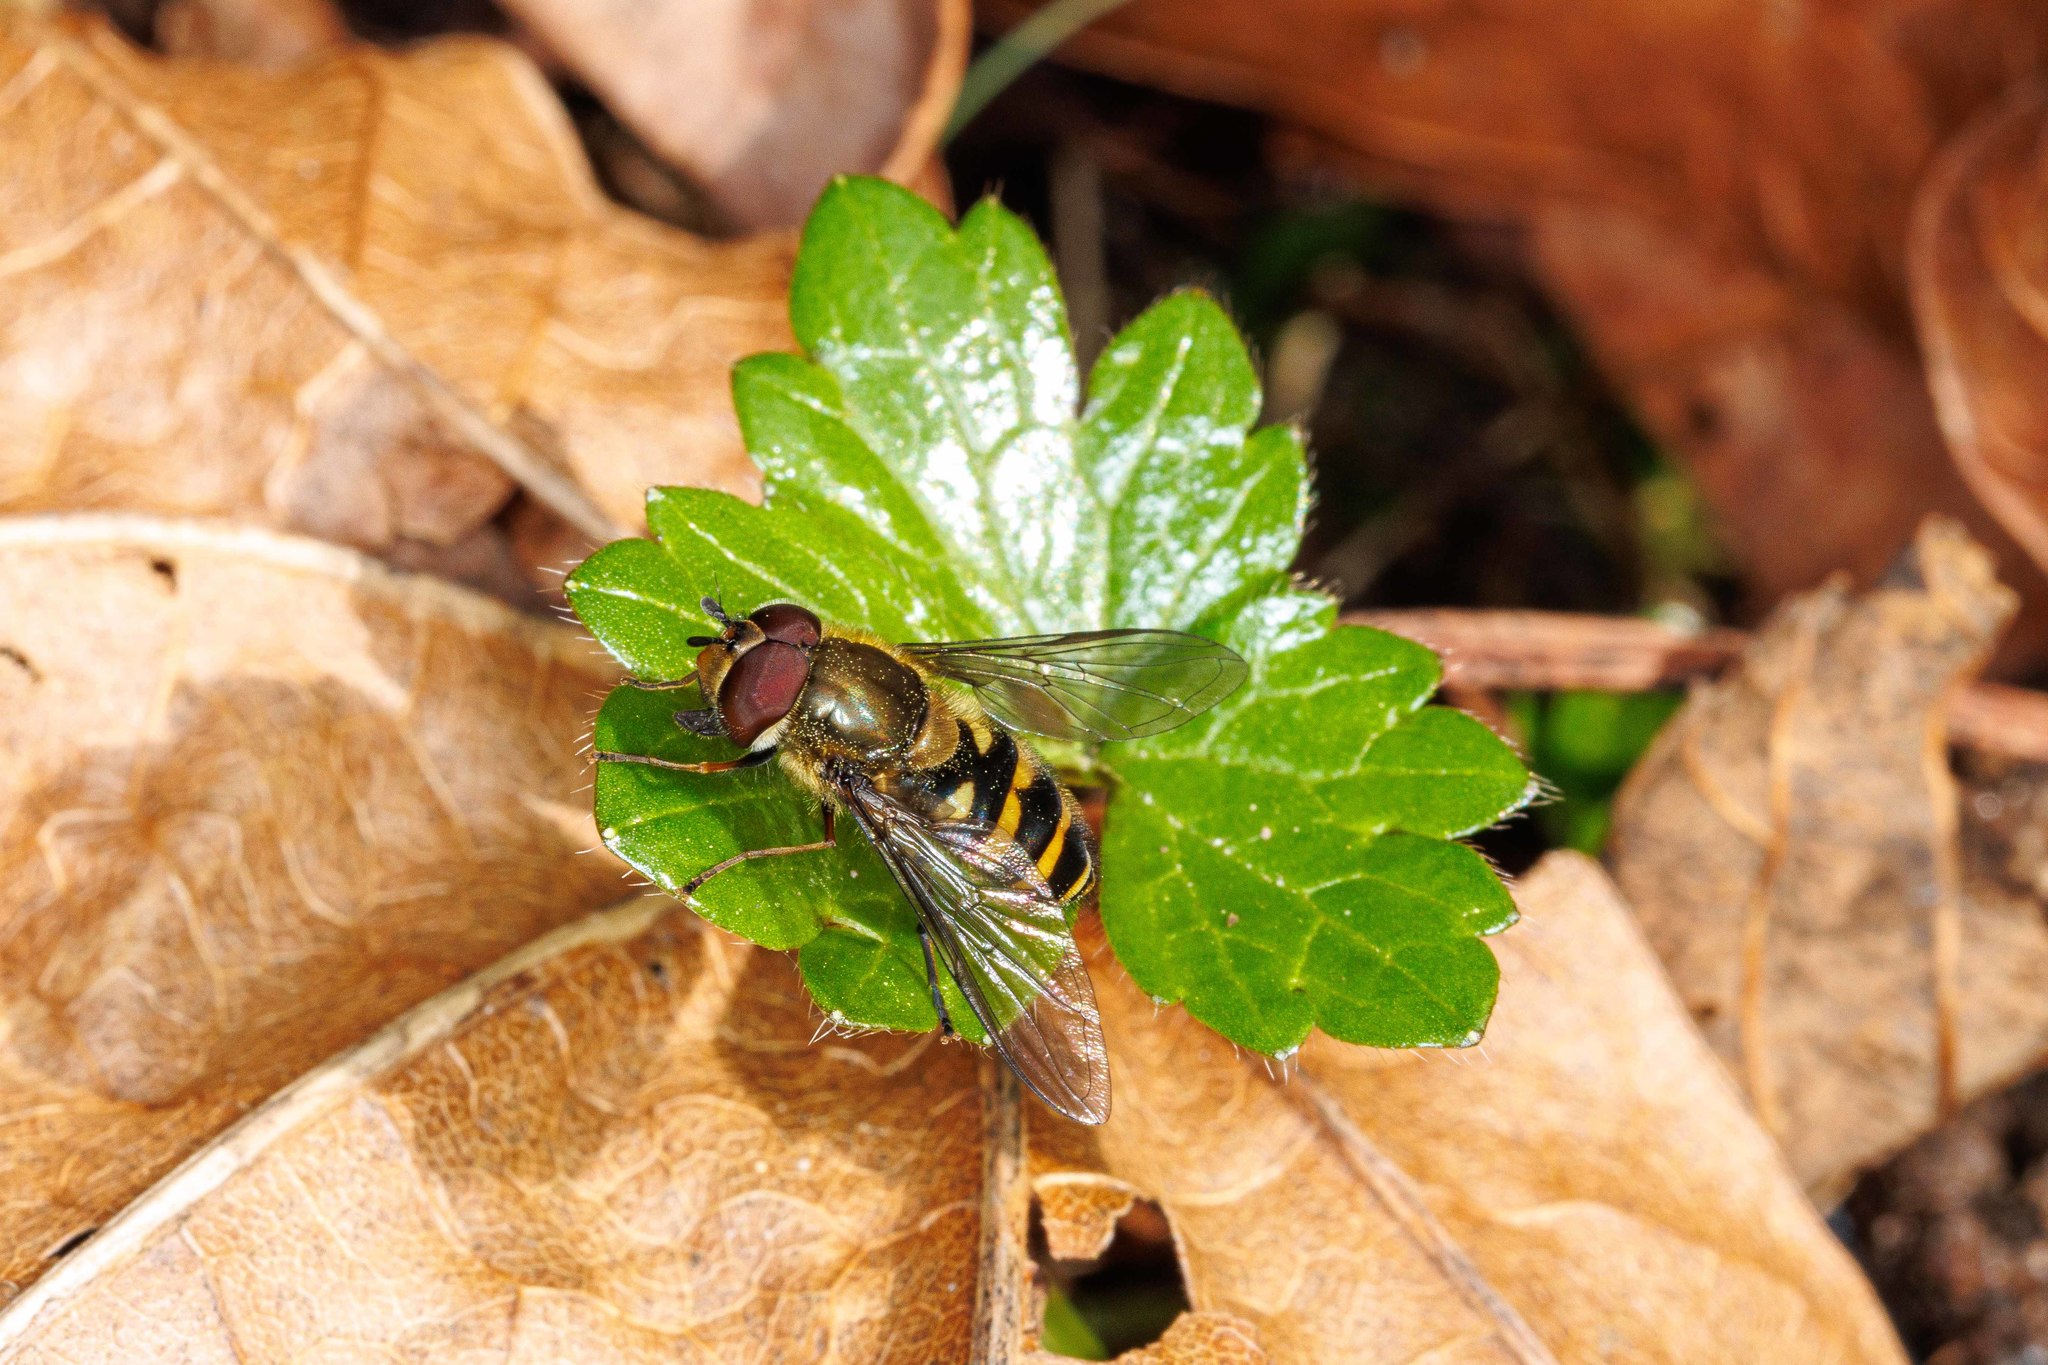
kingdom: Animalia
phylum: Arthropoda
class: Insecta
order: Diptera
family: Syrphidae
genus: Syrphus
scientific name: Syrphus torvus
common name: Hairy-eyed flower fly
